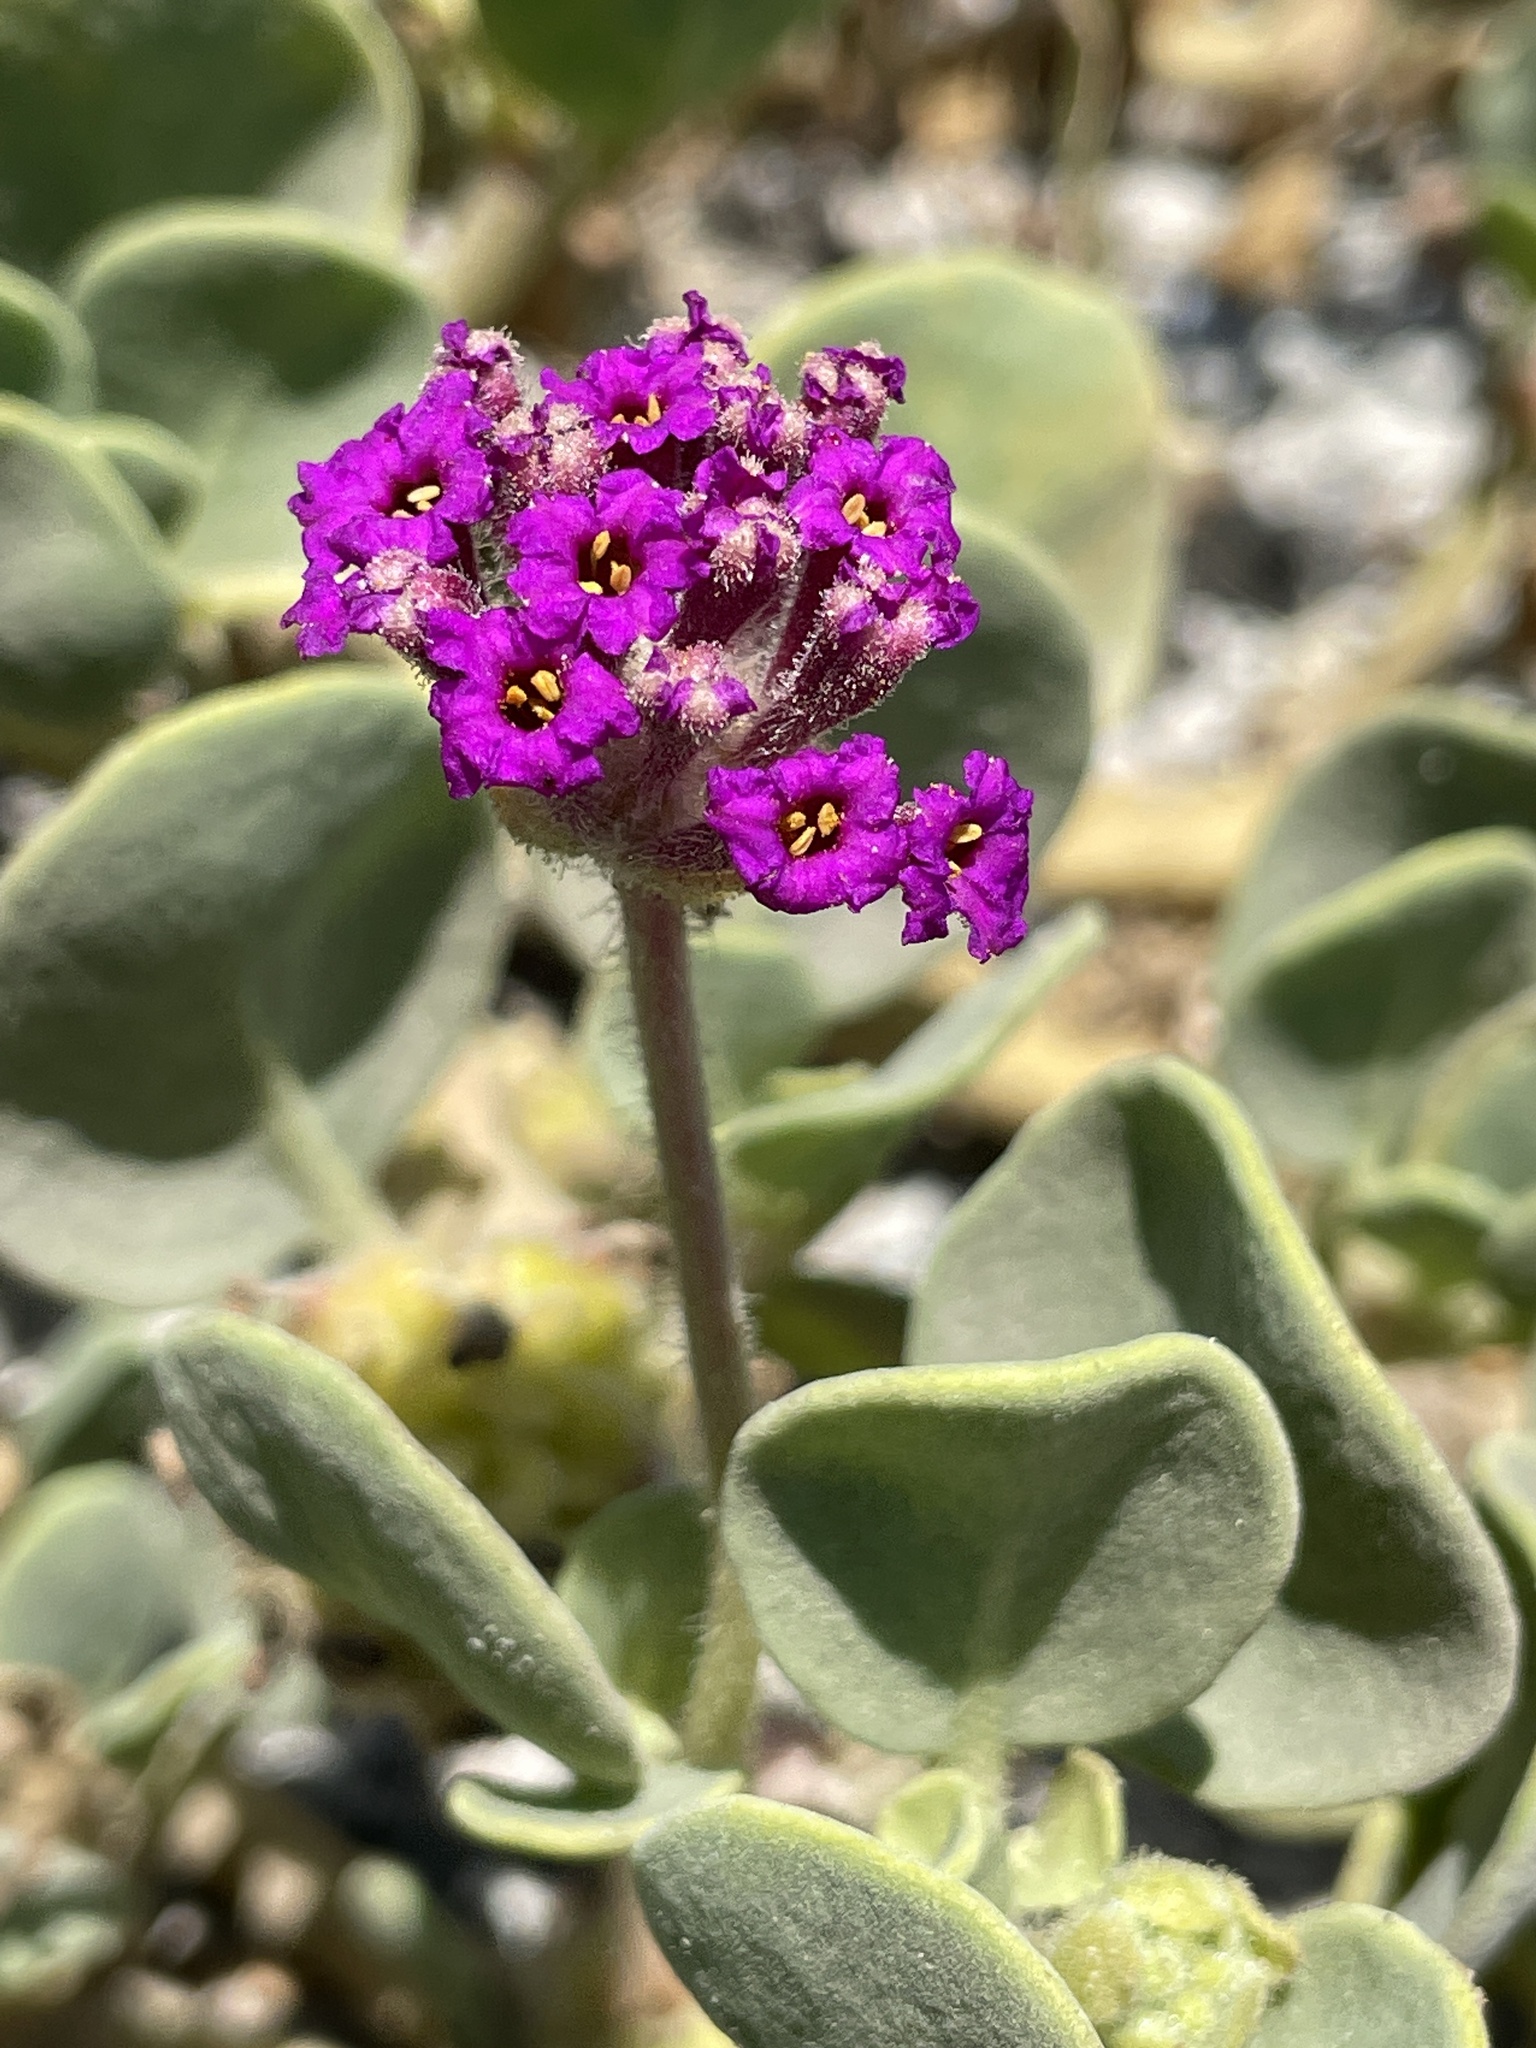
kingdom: Plantae
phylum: Tracheophyta
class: Magnoliopsida
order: Caryophyllales
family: Nyctaginaceae
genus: Abronia
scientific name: Abronia maritima
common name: Red sand-verbena
